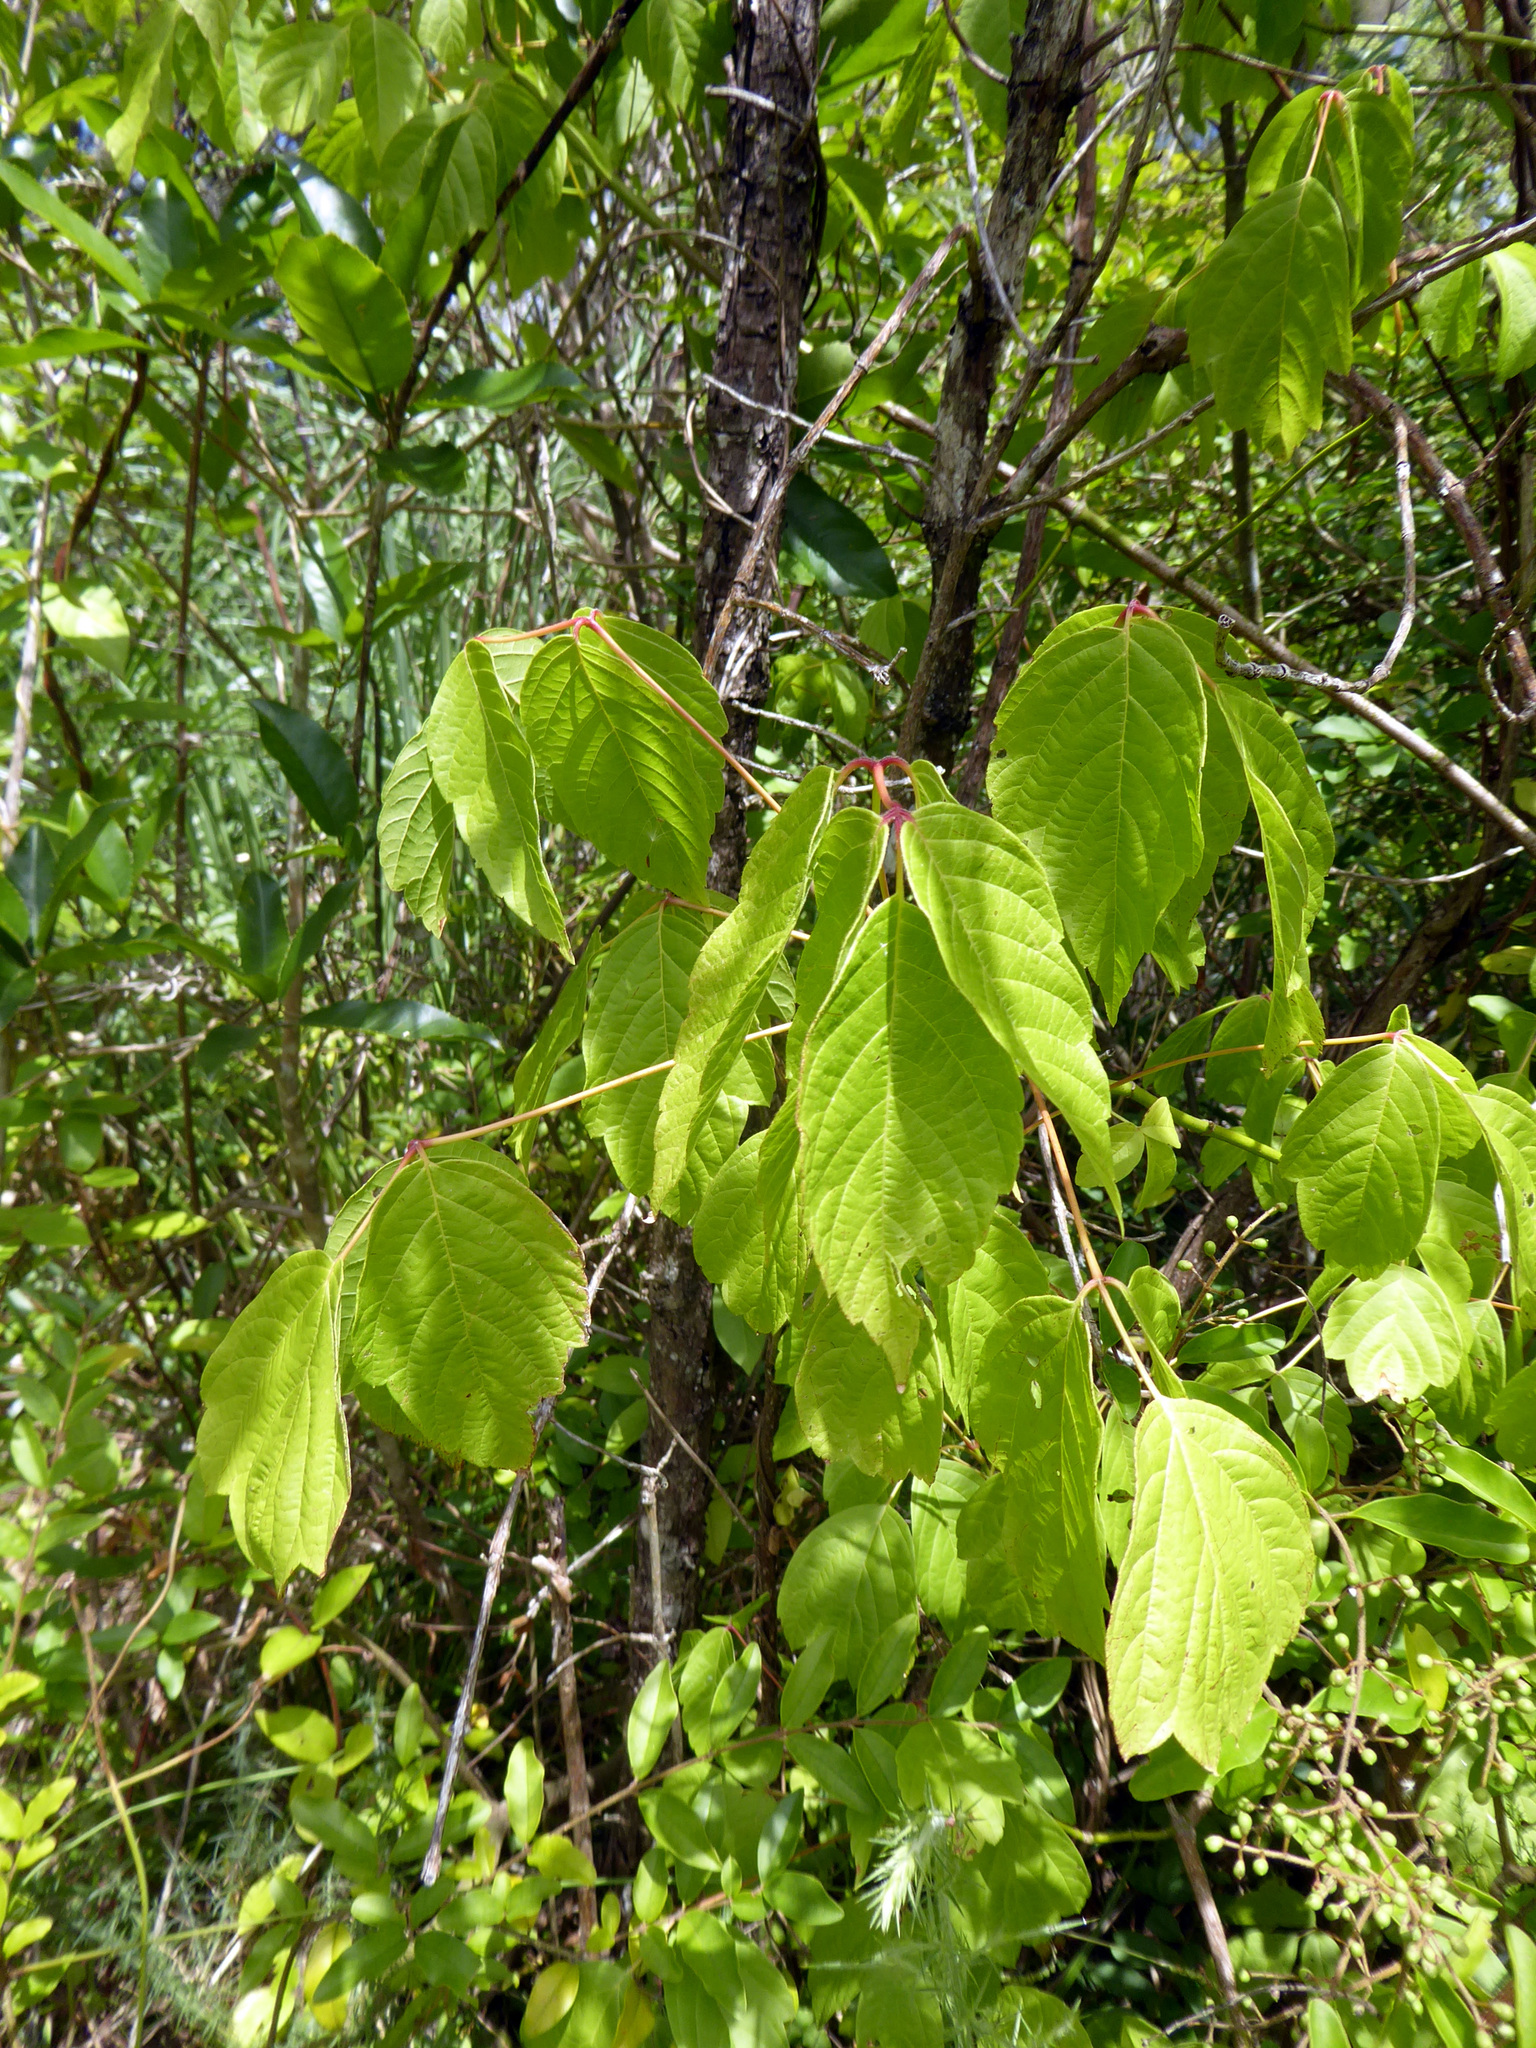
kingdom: Plantae
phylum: Tracheophyta
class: Magnoliopsida
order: Sapindales
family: Sapindaceae
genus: Acer
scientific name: Acer negundo
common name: Ashleaf maple
